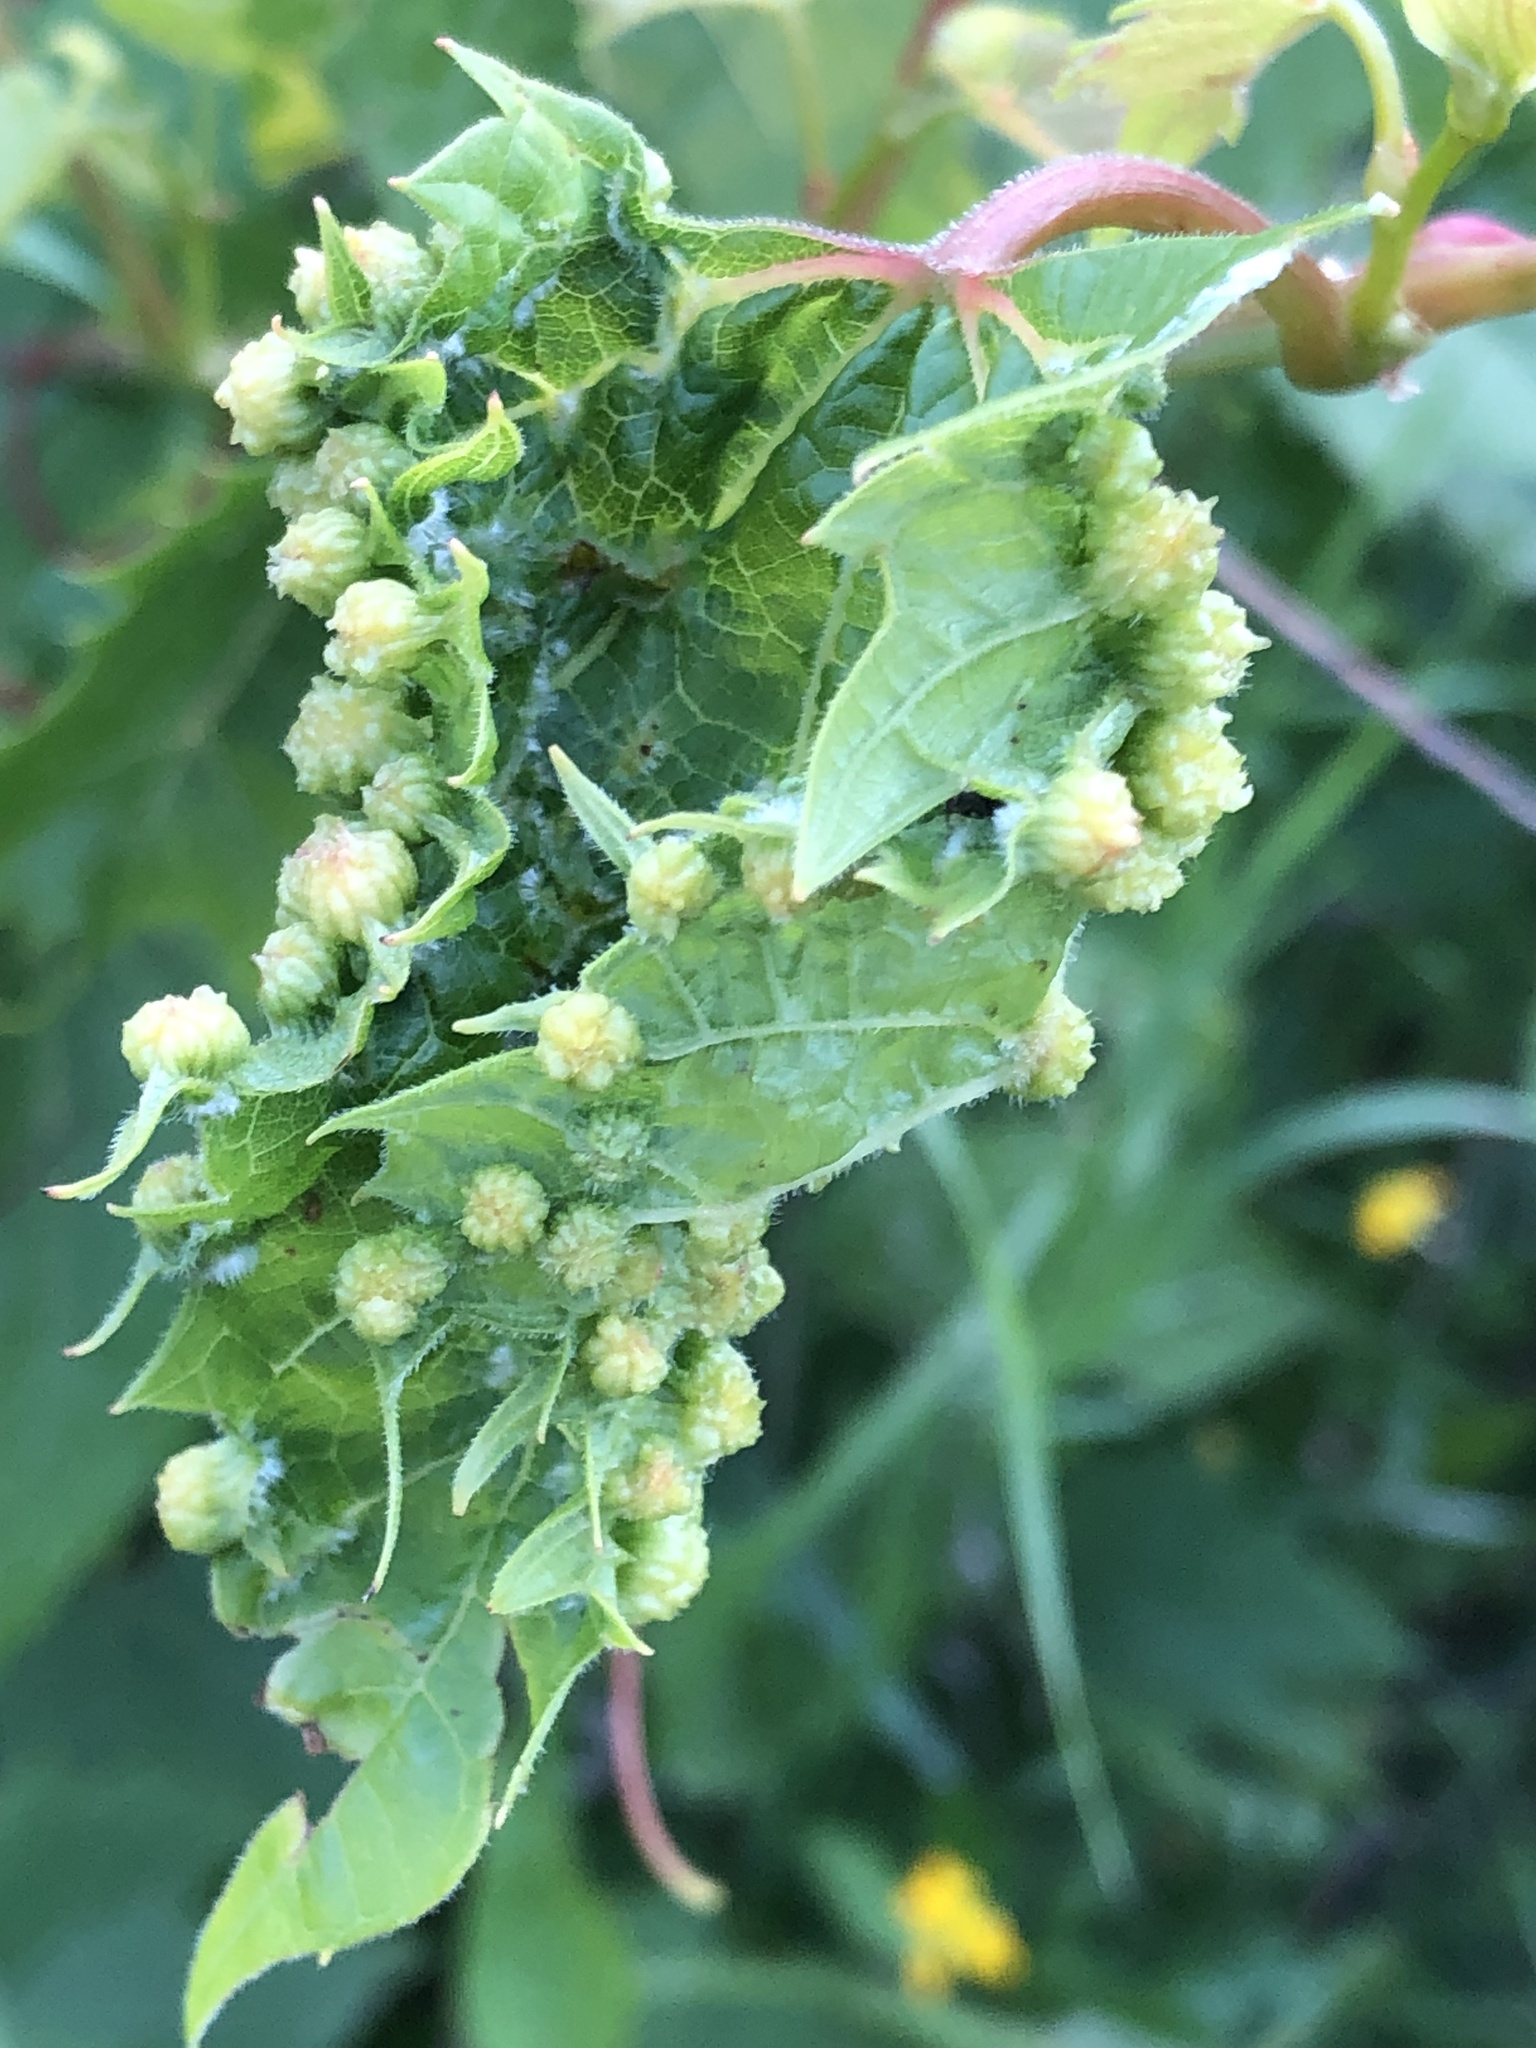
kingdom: Animalia
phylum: Arthropoda
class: Insecta
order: Hemiptera
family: Phylloxeridae
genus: Daktulosphaira
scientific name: Daktulosphaira vitifoliae
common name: Grape phylloxera
